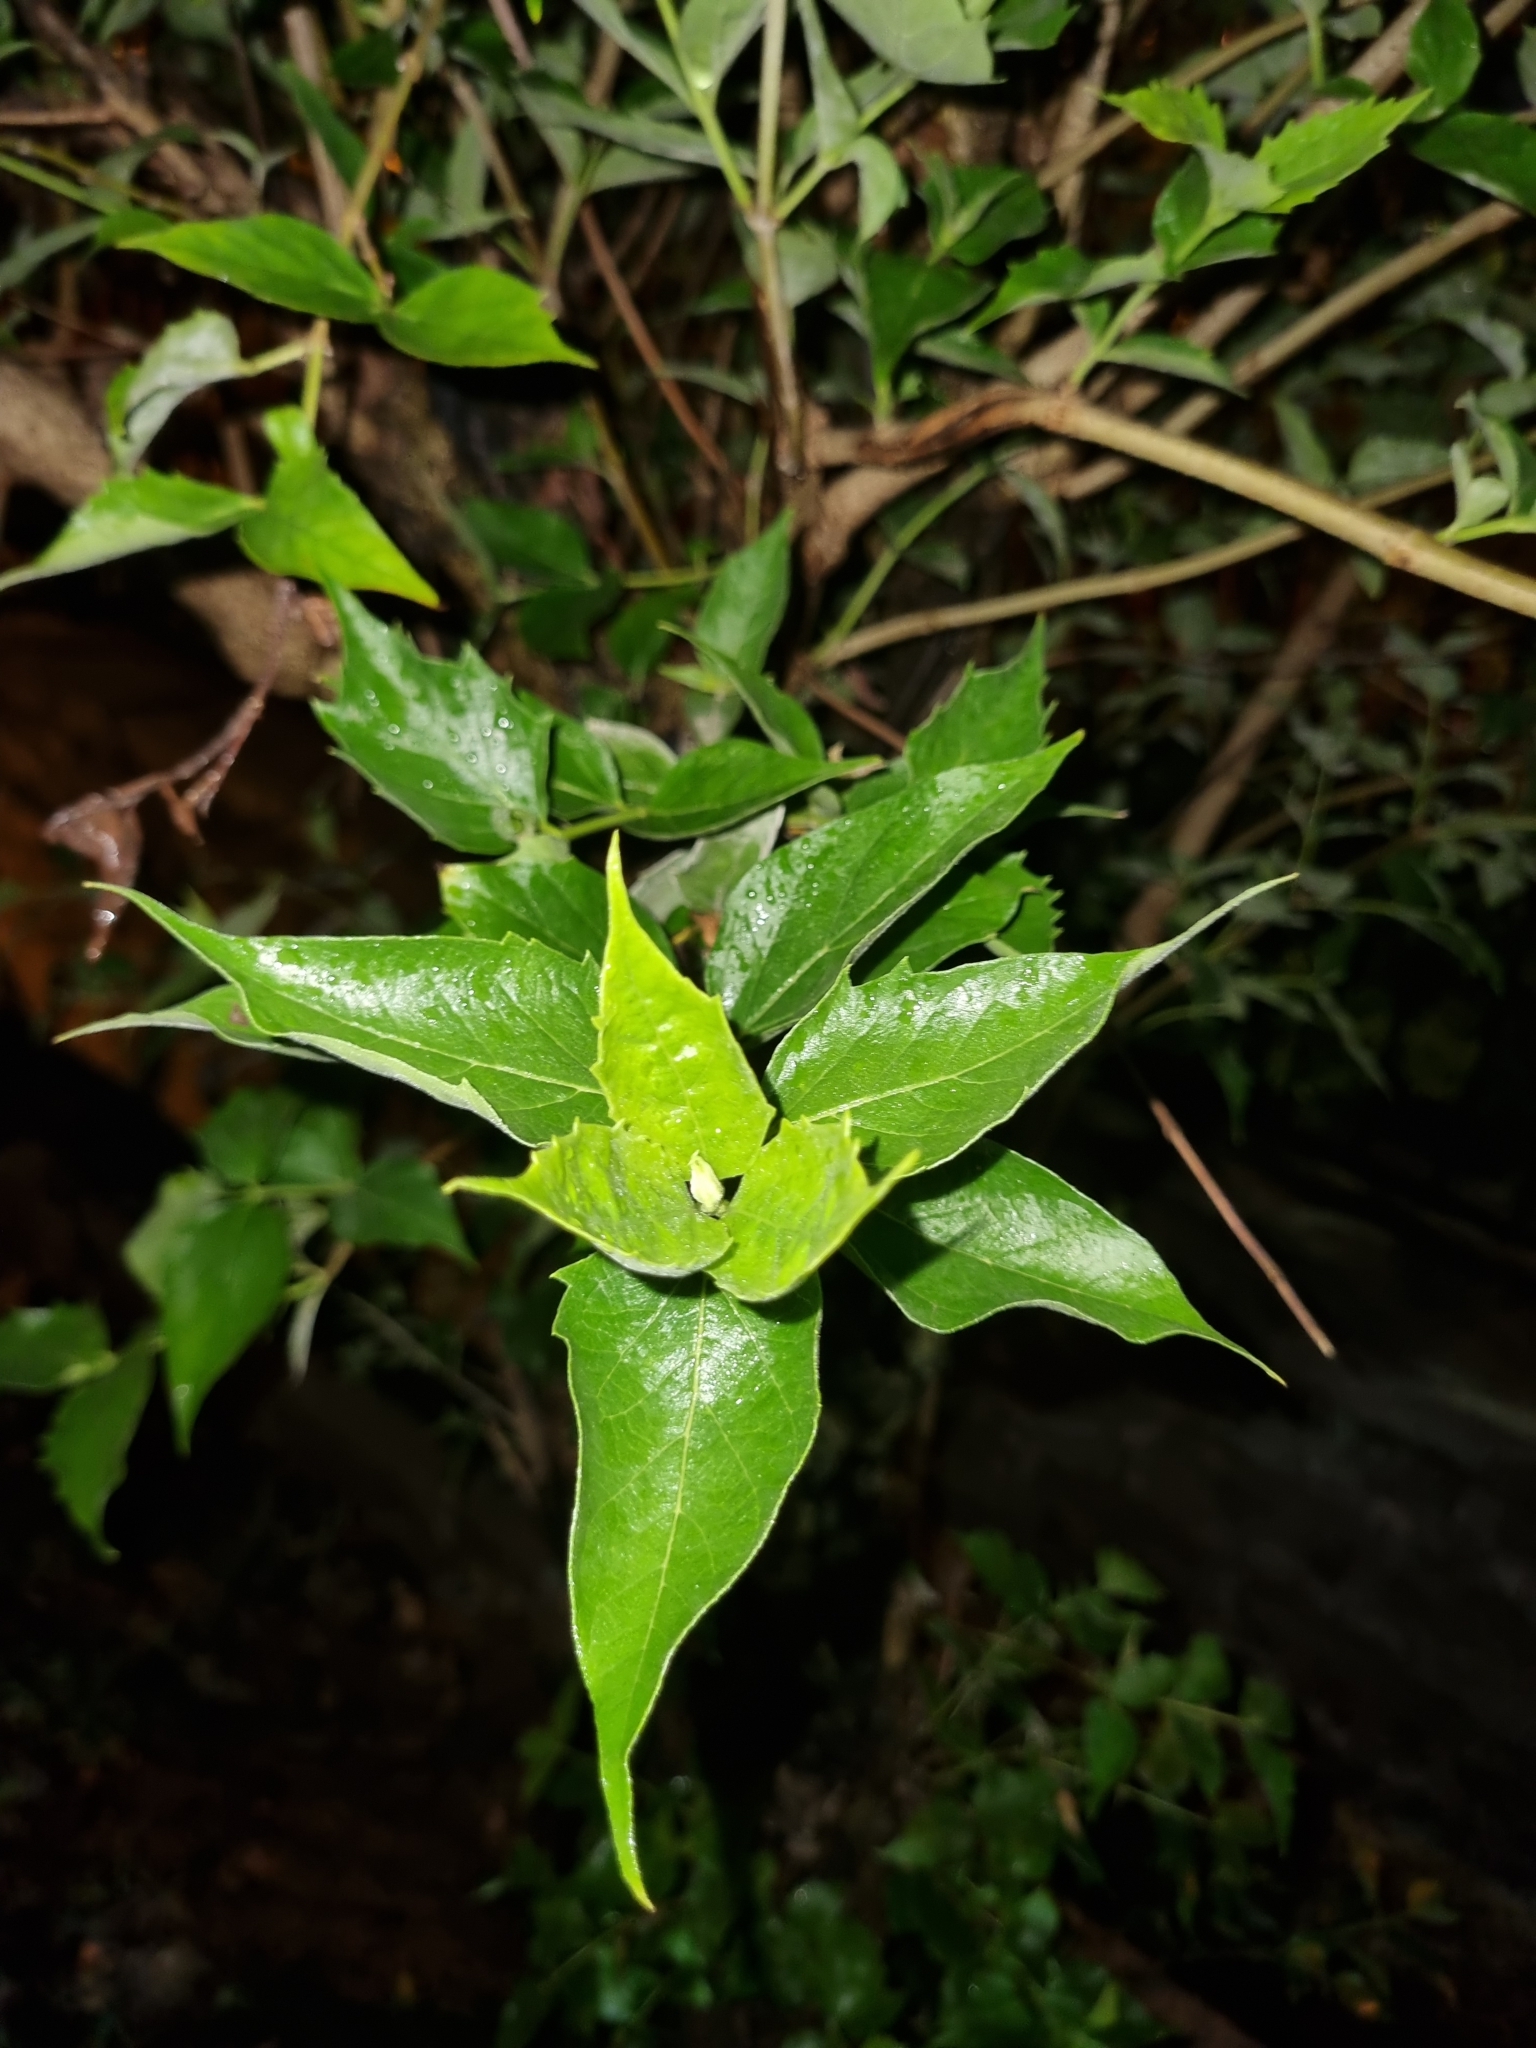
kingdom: Plantae
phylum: Tracheophyta
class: Magnoliopsida
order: Lamiales
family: Oleaceae
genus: Nyctanthes
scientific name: Nyctanthes arbor-tristis
